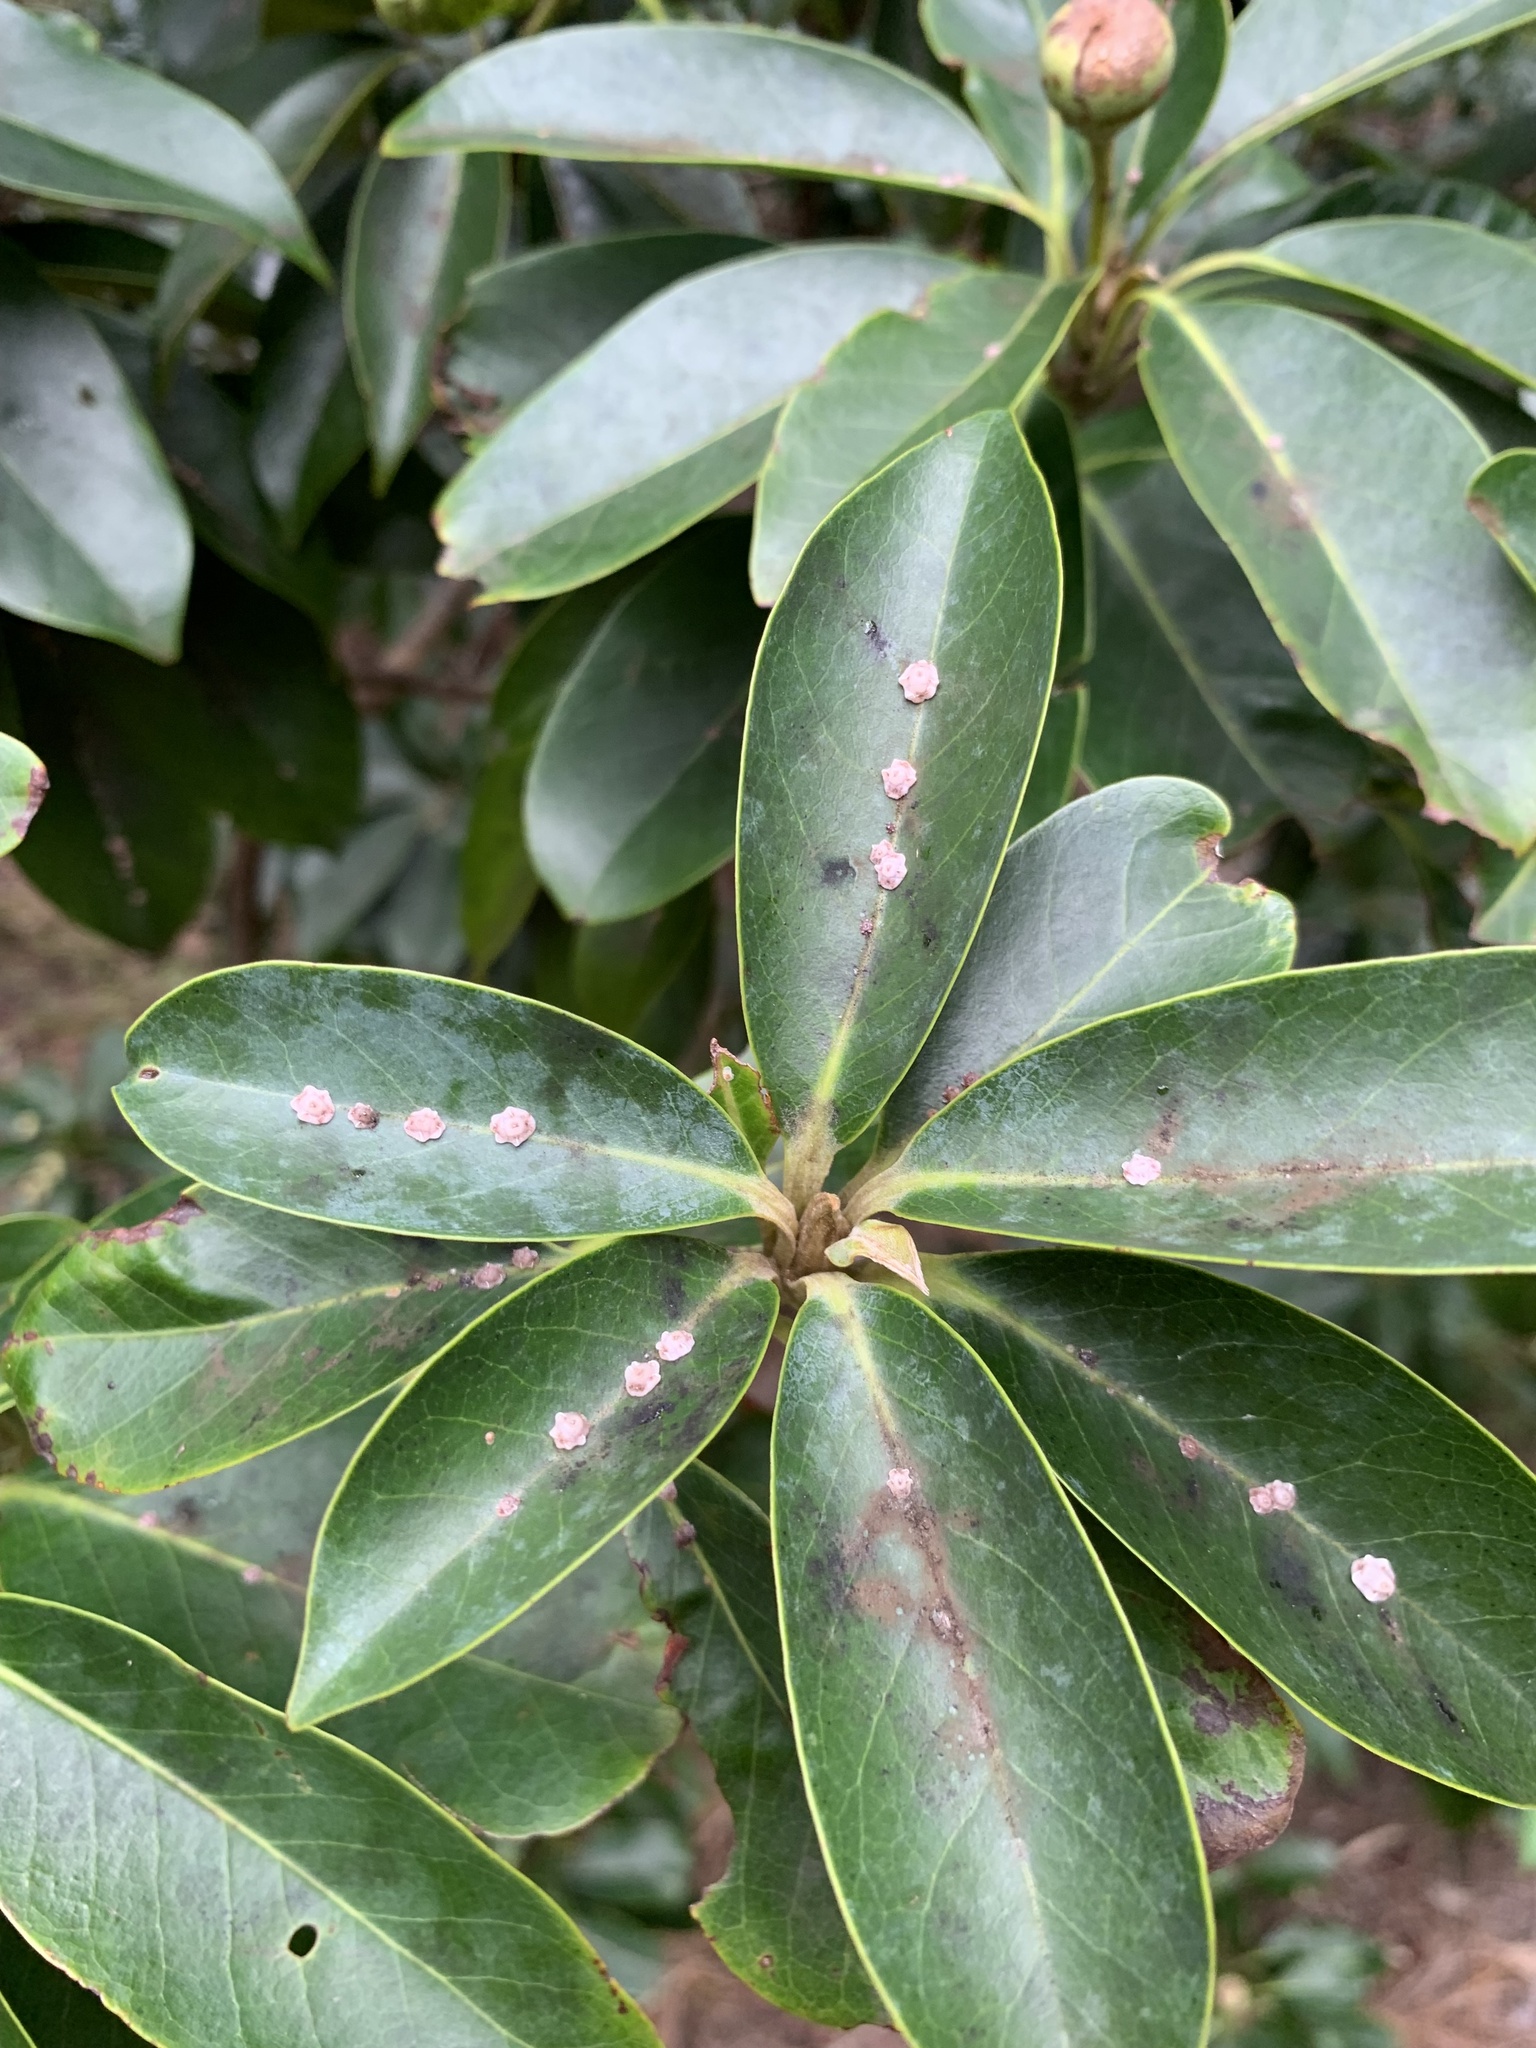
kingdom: Animalia
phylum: Arthropoda
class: Insecta
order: Hemiptera
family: Coccidae
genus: Ceroplastes
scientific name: Ceroplastes rubens
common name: Pink wax scale
